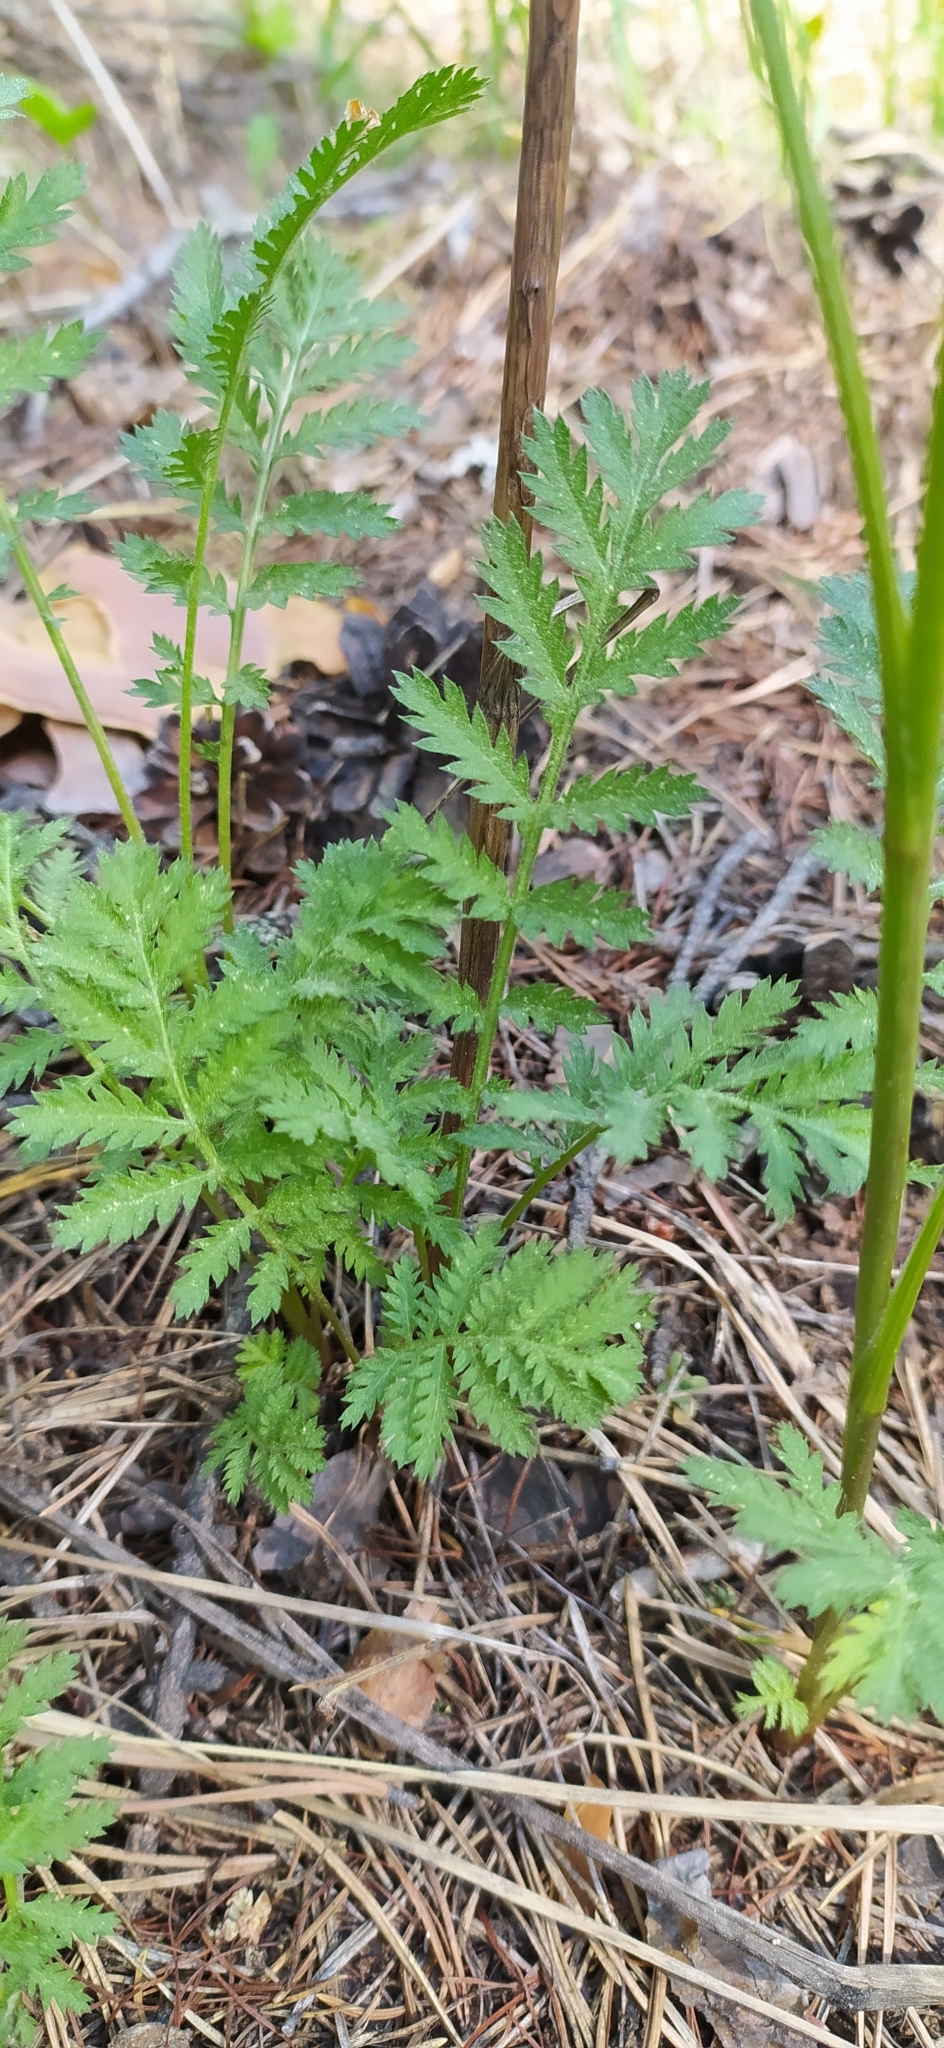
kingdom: Plantae
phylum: Tracheophyta
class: Magnoliopsida
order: Asterales
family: Asteraceae
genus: Tanacetum
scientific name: Tanacetum vulgare
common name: Common tansy
